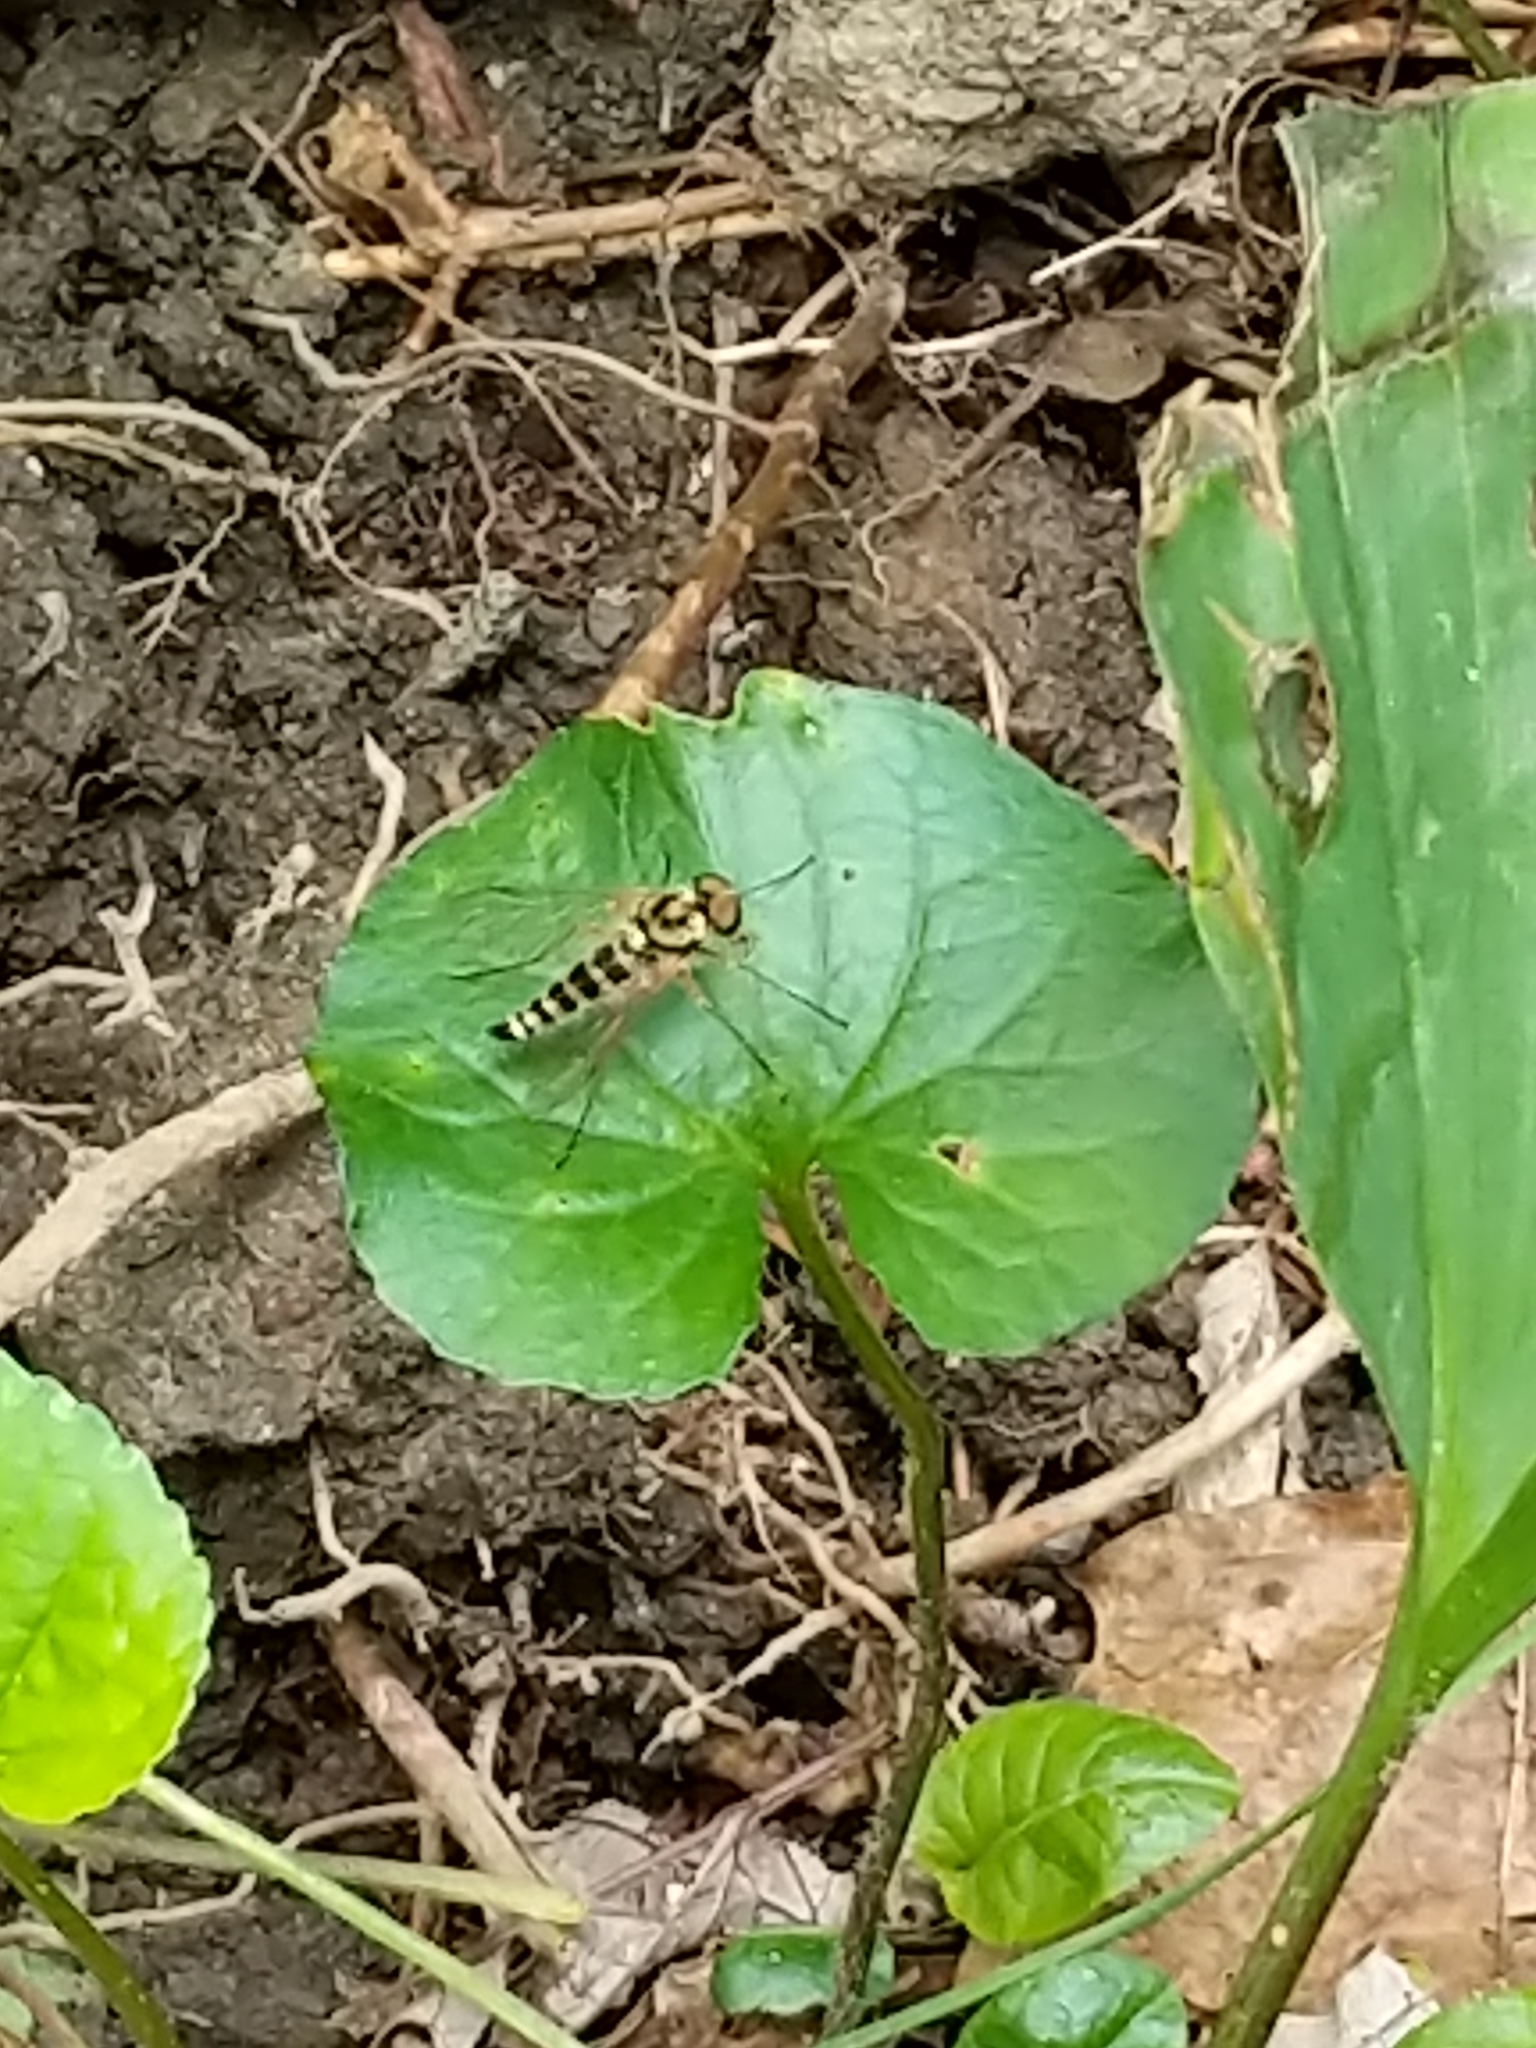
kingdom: Animalia
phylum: Arthropoda
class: Insecta
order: Diptera
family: Rhagionidae
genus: Chrysopilus
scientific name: Chrysopilus ornatus
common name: Ornate snipe fly
